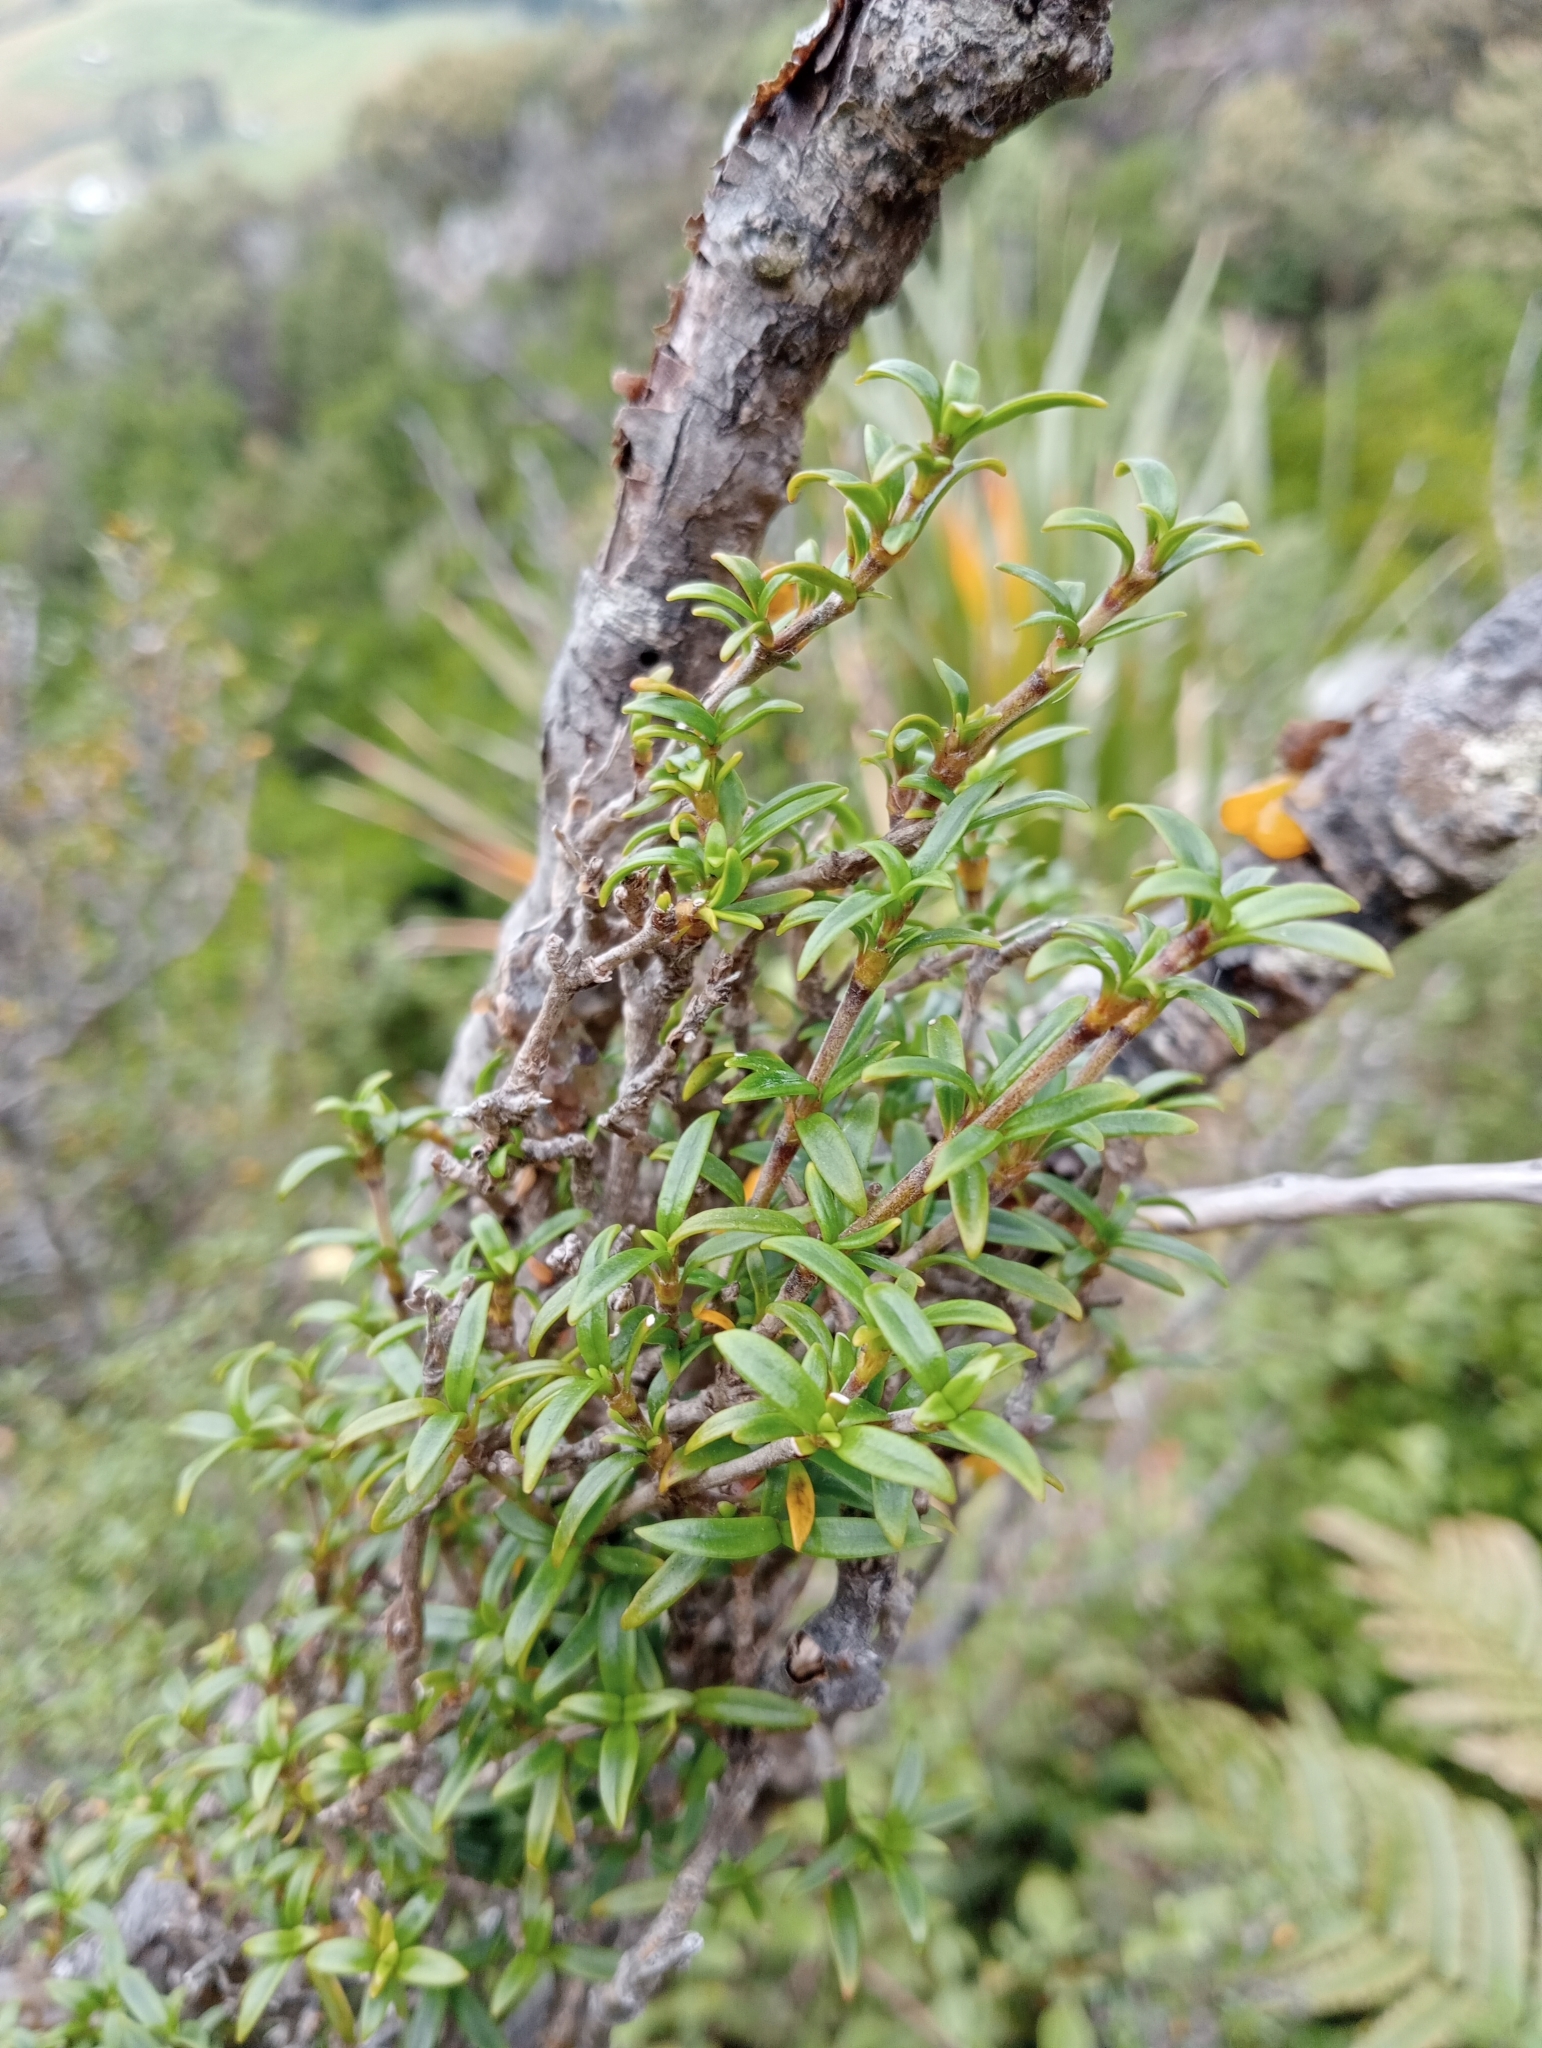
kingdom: Plantae
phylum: Tracheophyta
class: Magnoliopsida
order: Gentianales
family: Rubiaceae
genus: Coprosma
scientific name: Coprosma pseudocuneata
